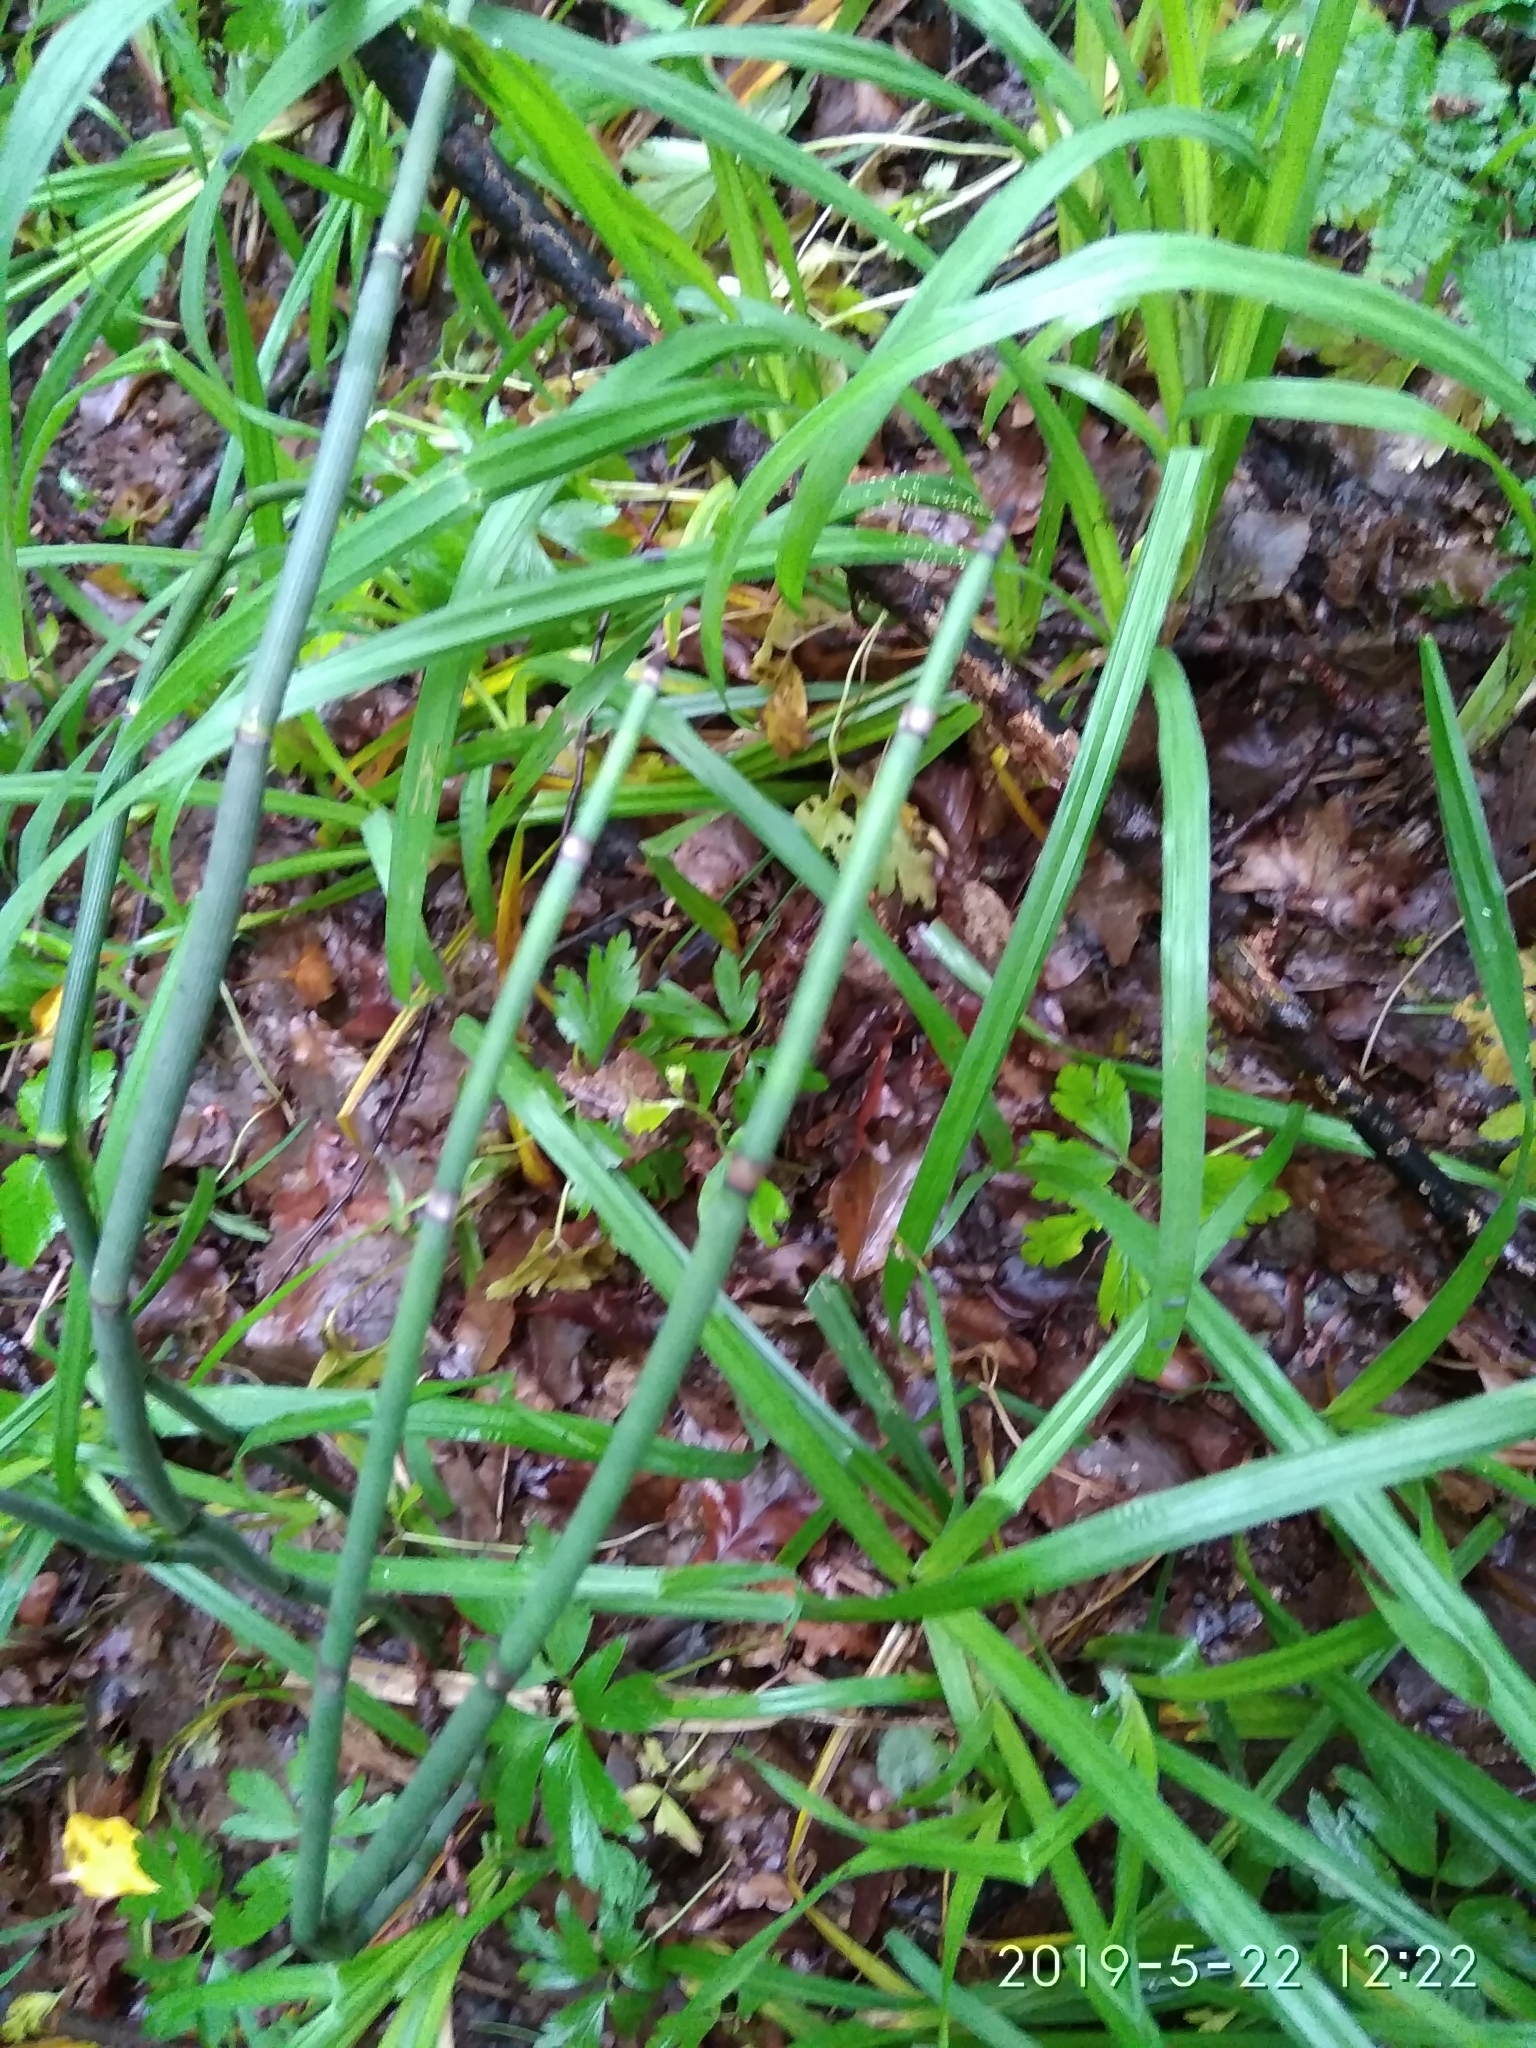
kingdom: Plantae
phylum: Tracheophyta
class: Polypodiopsida
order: Equisetales
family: Equisetaceae
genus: Equisetum
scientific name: Equisetum hyemale
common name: Rough horsetail
